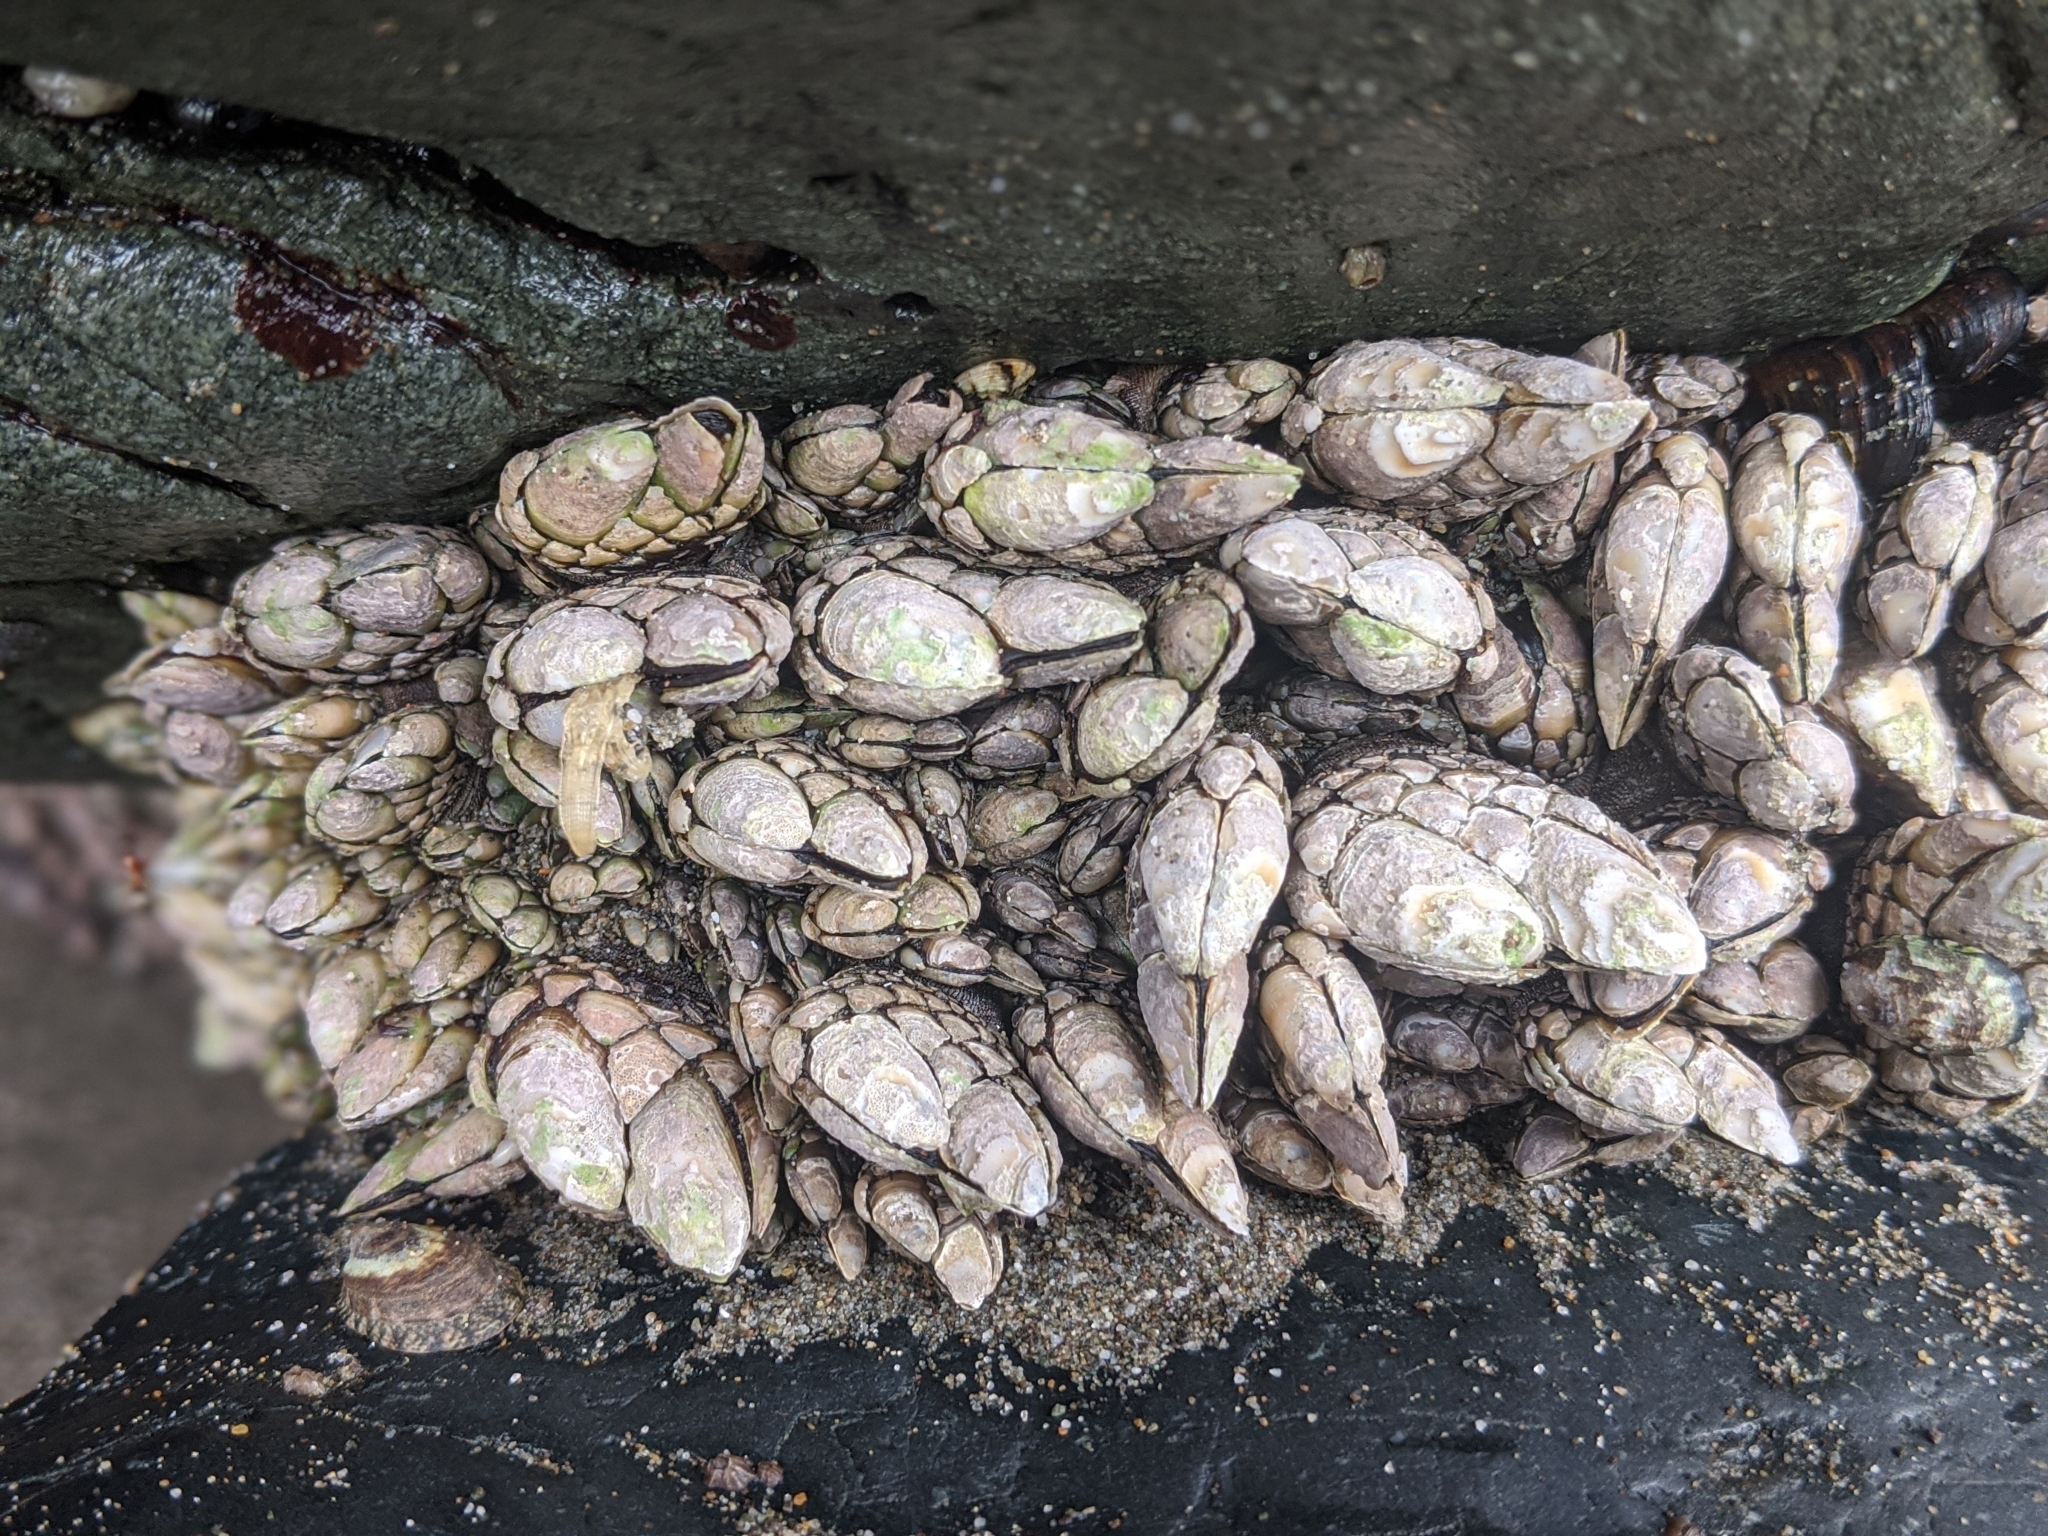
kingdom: Animalia
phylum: Arthropoda
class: Maxillopoda
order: Pedunculata
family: Pollicipedidae
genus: Pollicipes
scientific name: Pollicipes polymerus
